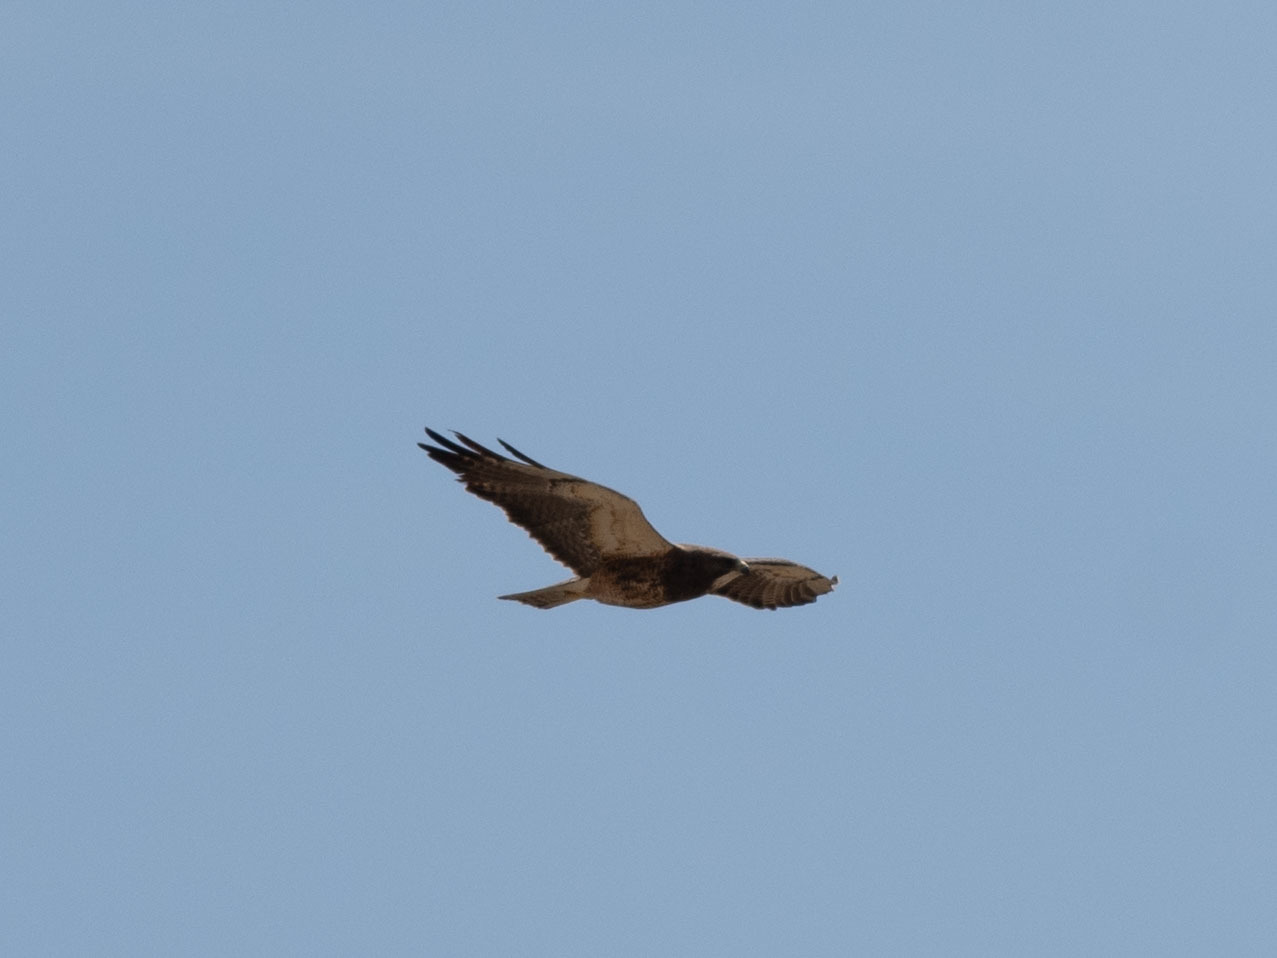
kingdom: Animalia
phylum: Chordata
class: Aves
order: Accipitriformes
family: Accipitridae
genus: Buteo
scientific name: Buteo swainsoni
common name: Swainson's hawk
